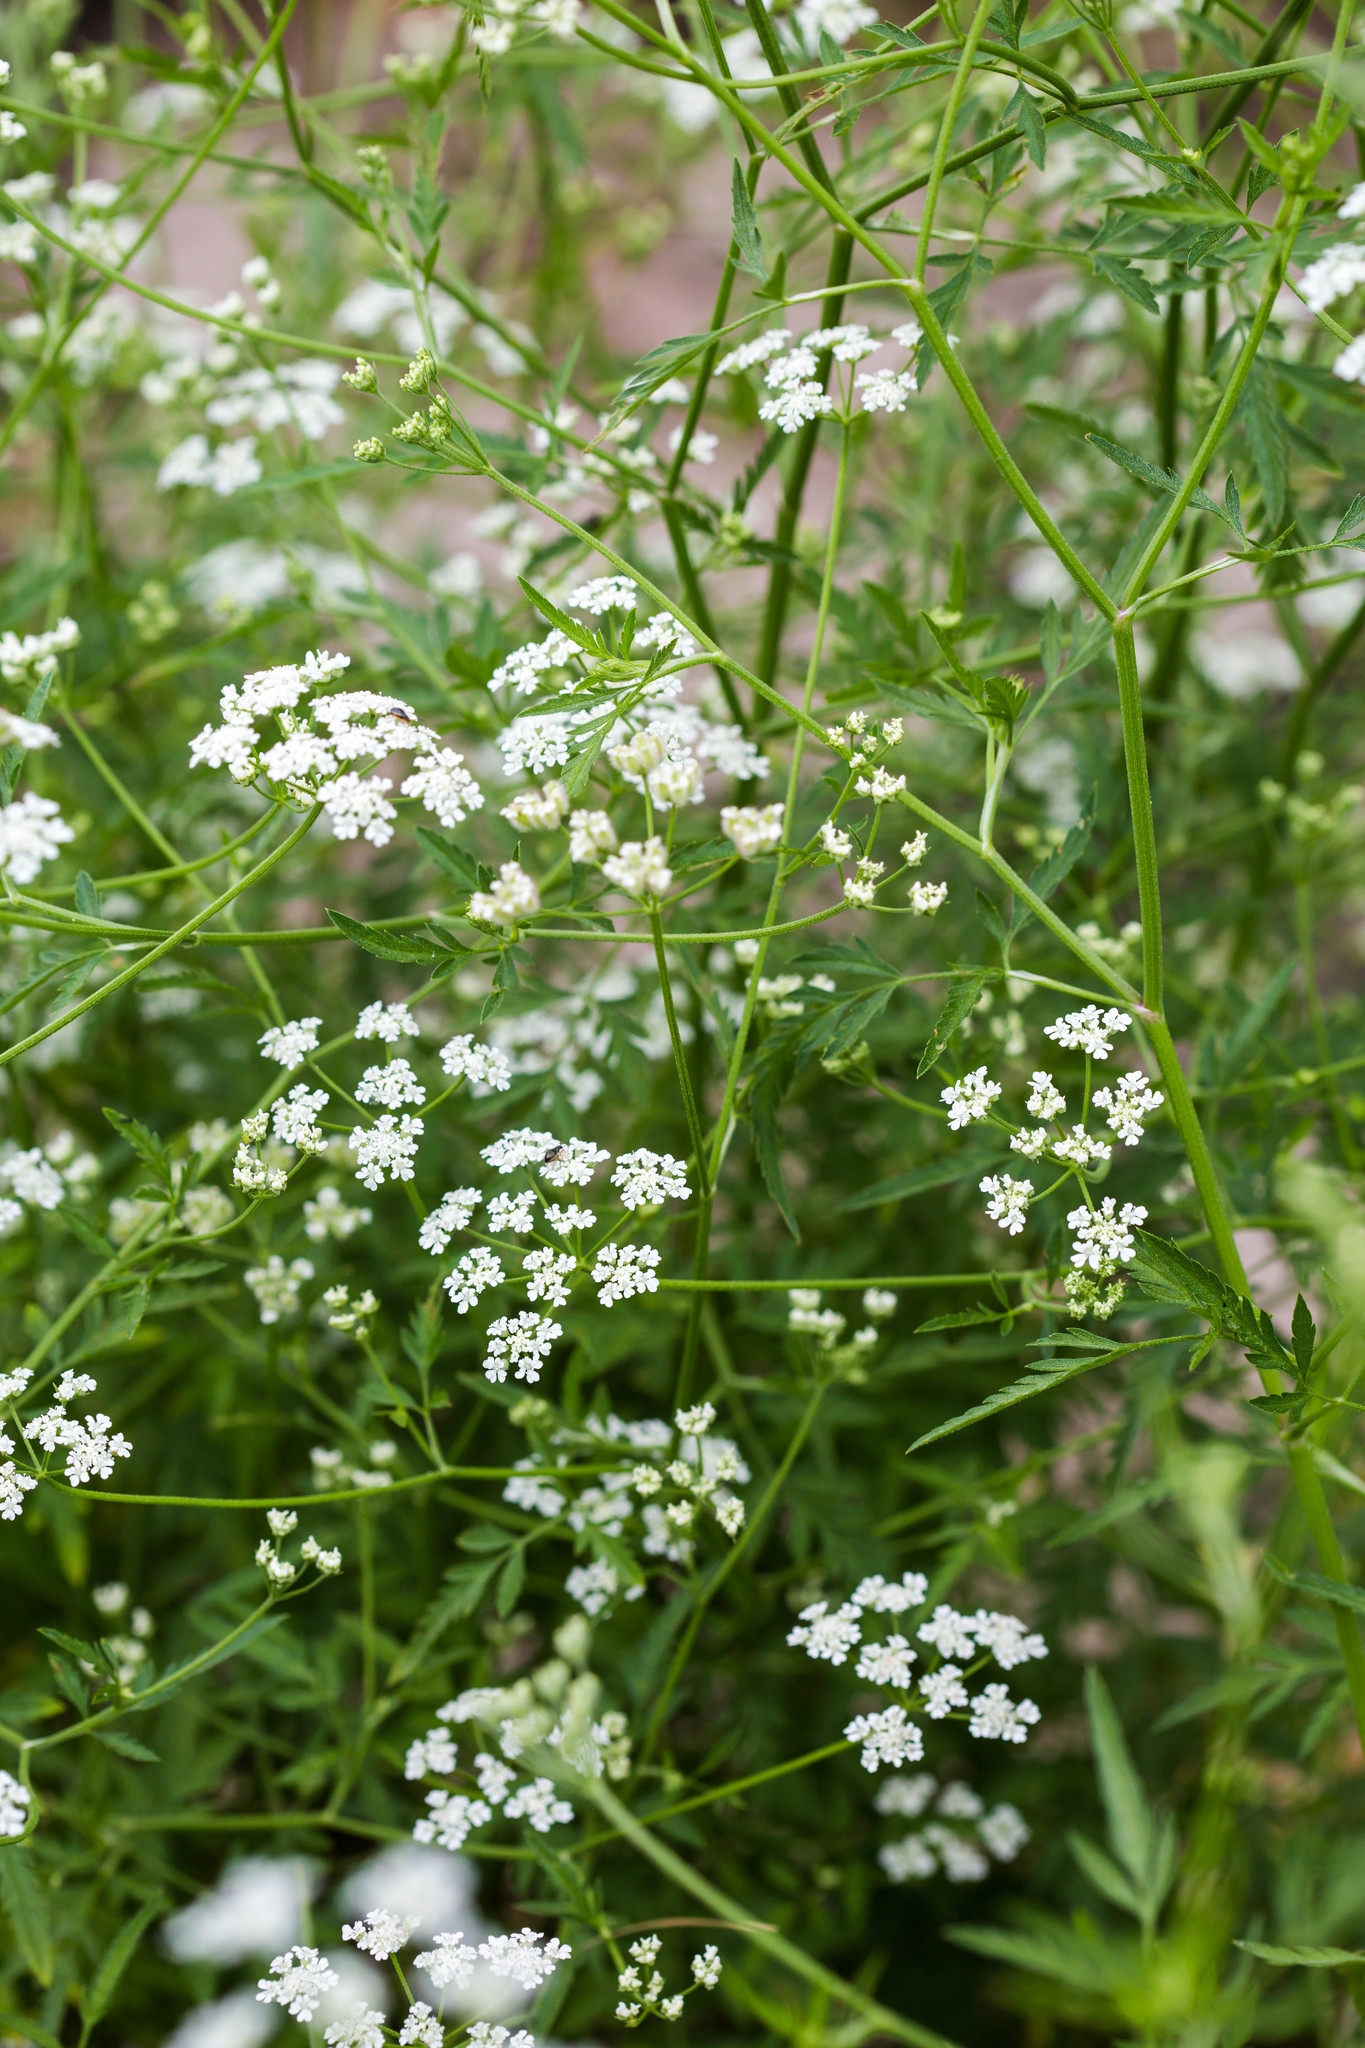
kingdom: Plantae
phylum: Tracheophyta
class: Magnoliopsida
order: Apiales
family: Apiaceae
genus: Torilis
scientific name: Torilis arvensis
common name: Spreading hedge-parsley
